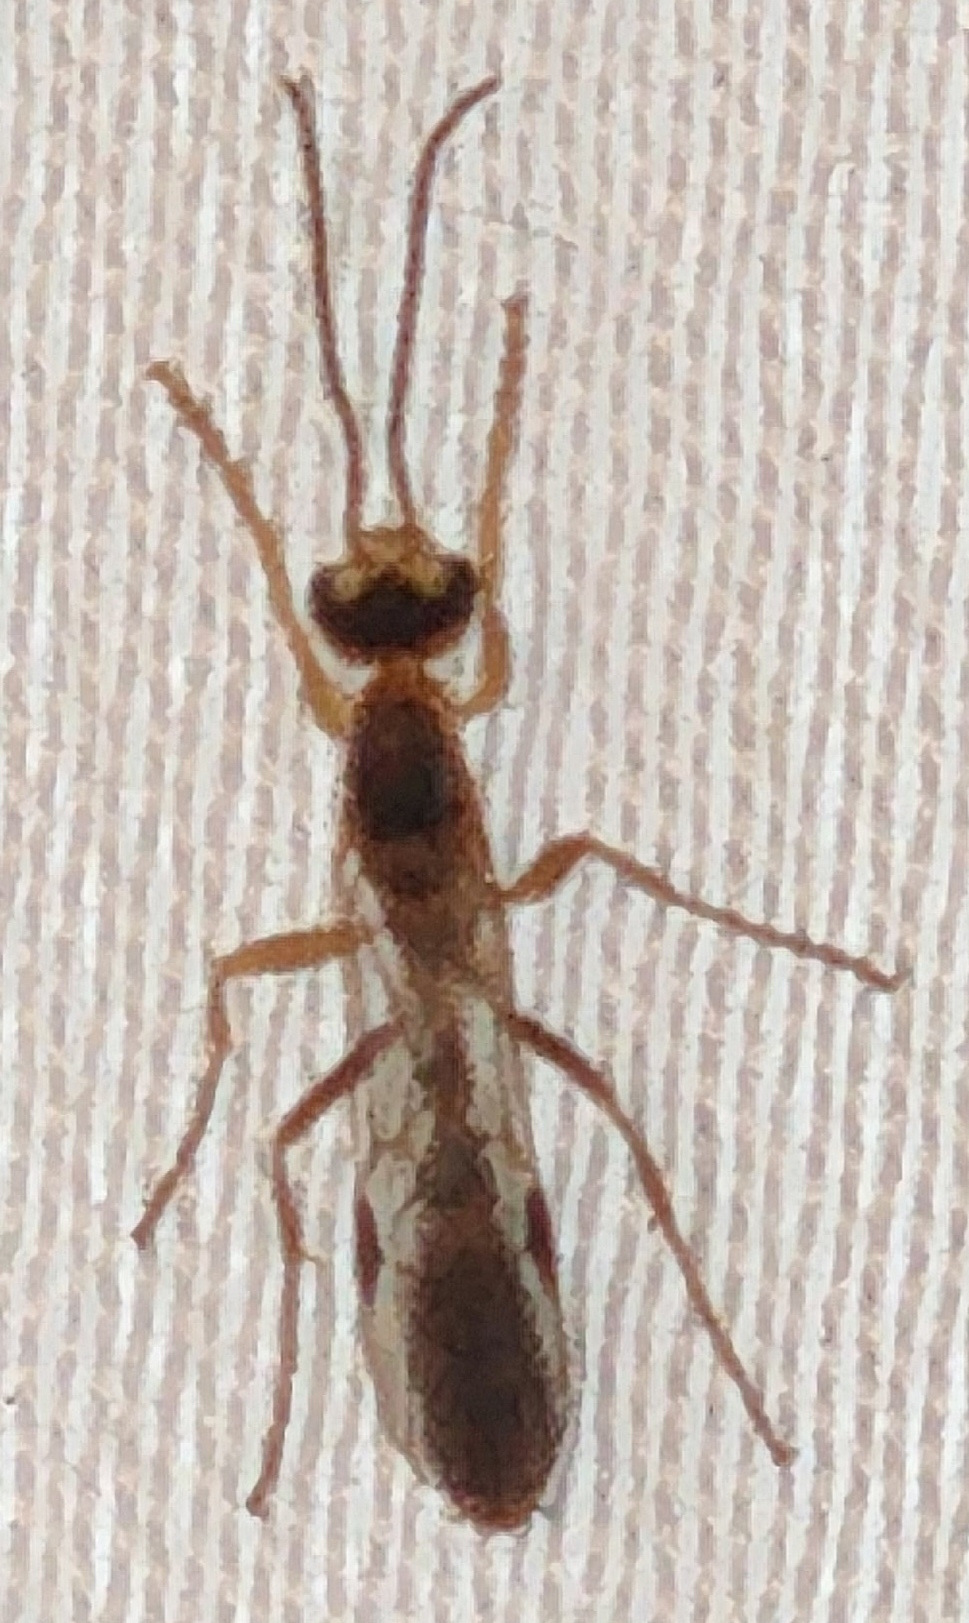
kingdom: Animalia
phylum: Arthropoda
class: Insecta
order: Hymenoptera
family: Formicidae
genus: Pseudomyrmex
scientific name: Pseudomyrmex gracilis
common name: Graceful twig ant
